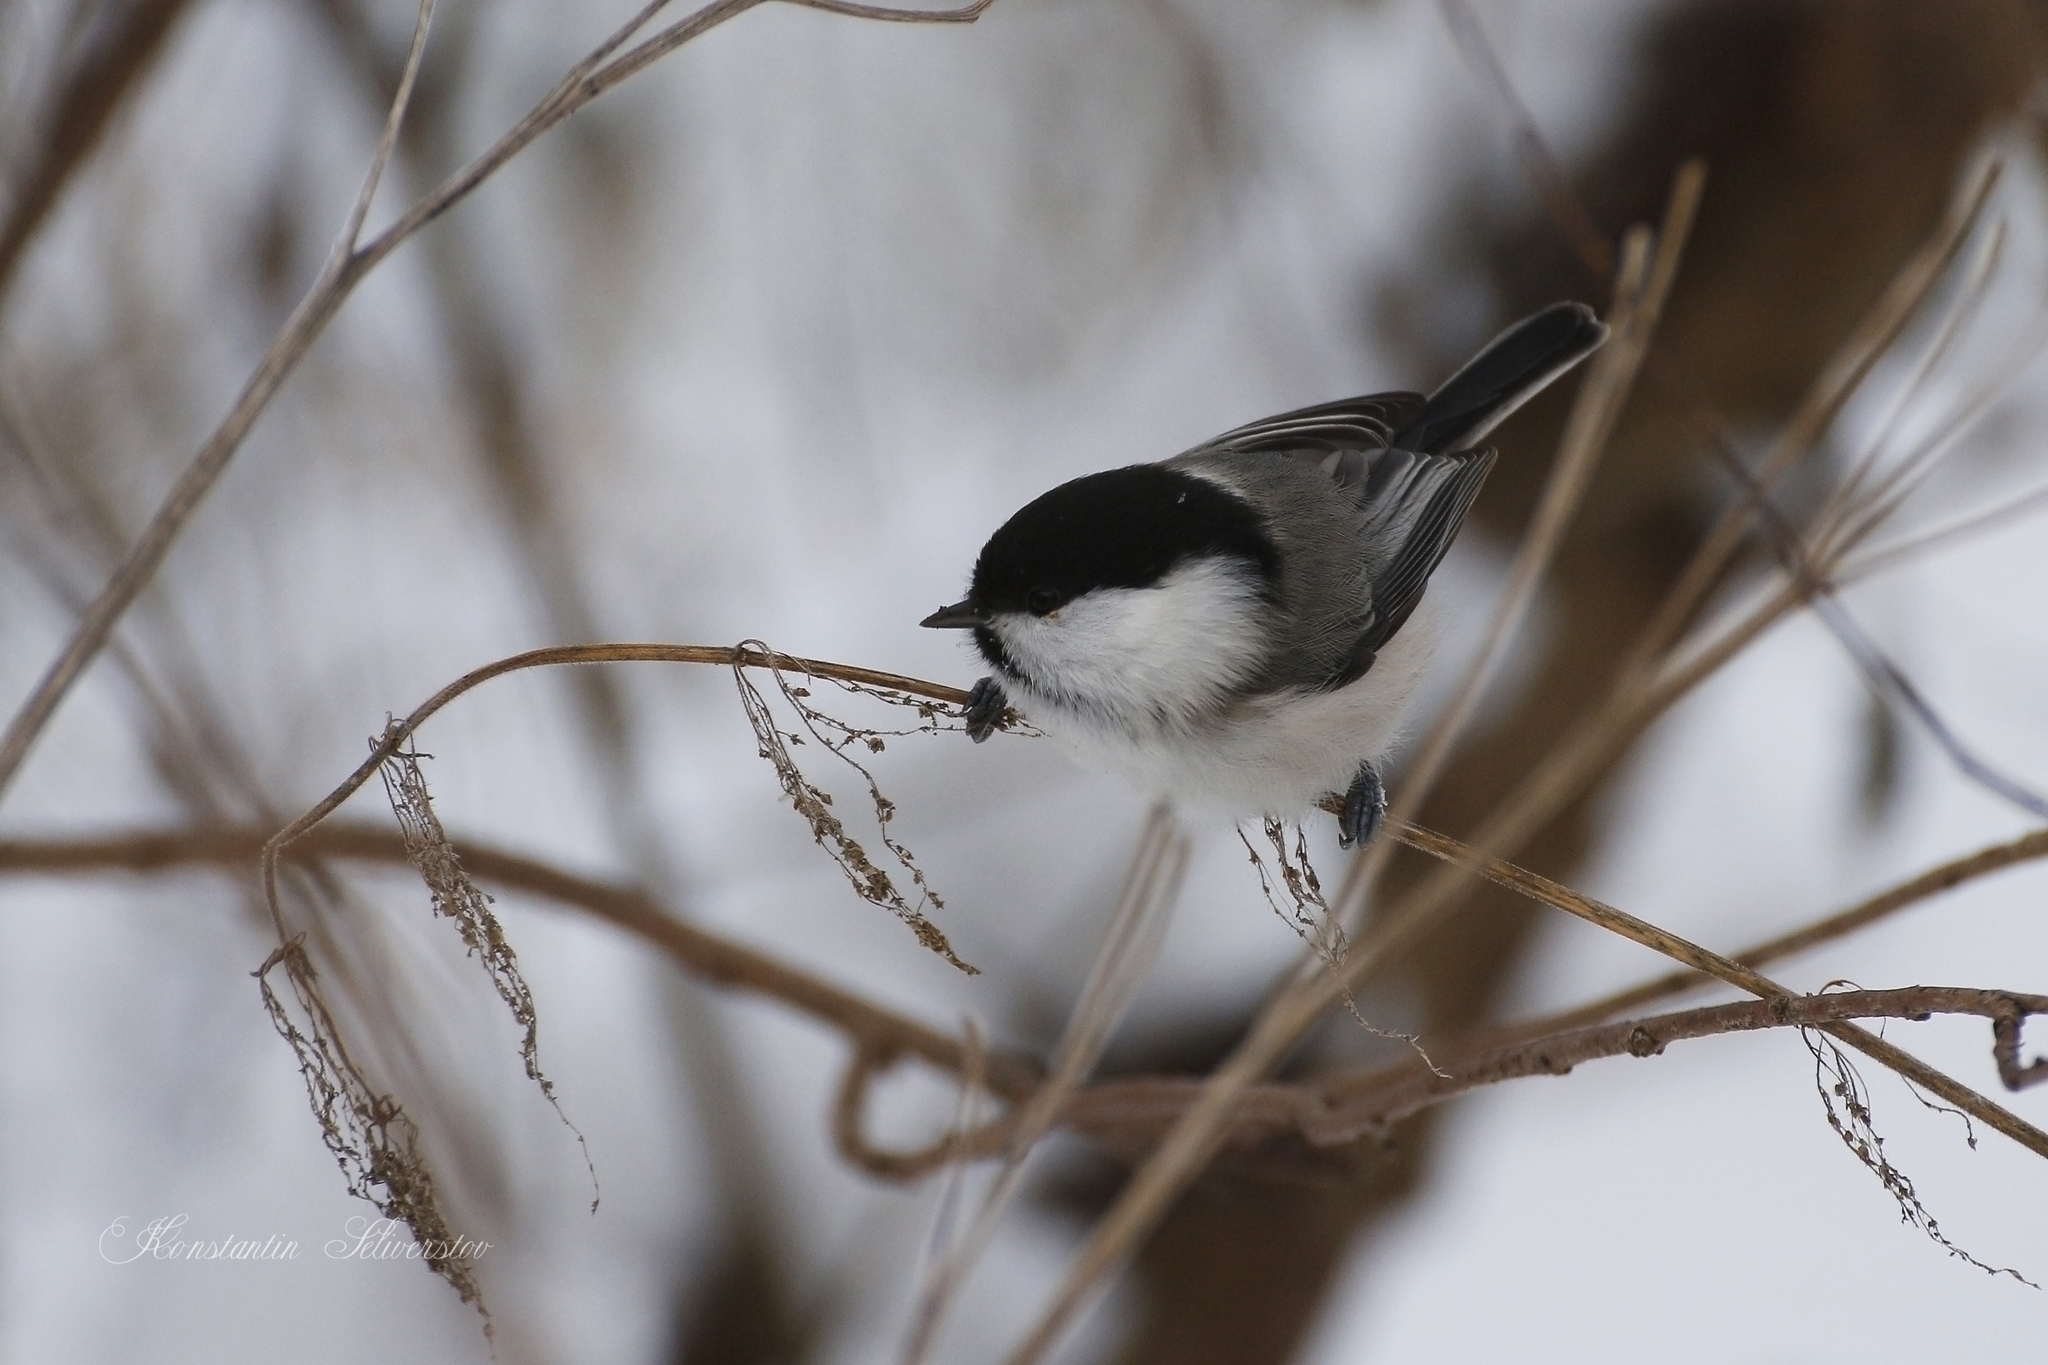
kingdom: Animalia
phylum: Chordata
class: Aves
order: Passeriformes
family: Paridae
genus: Poecile
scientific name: Poecile montanus
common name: Willow tit
